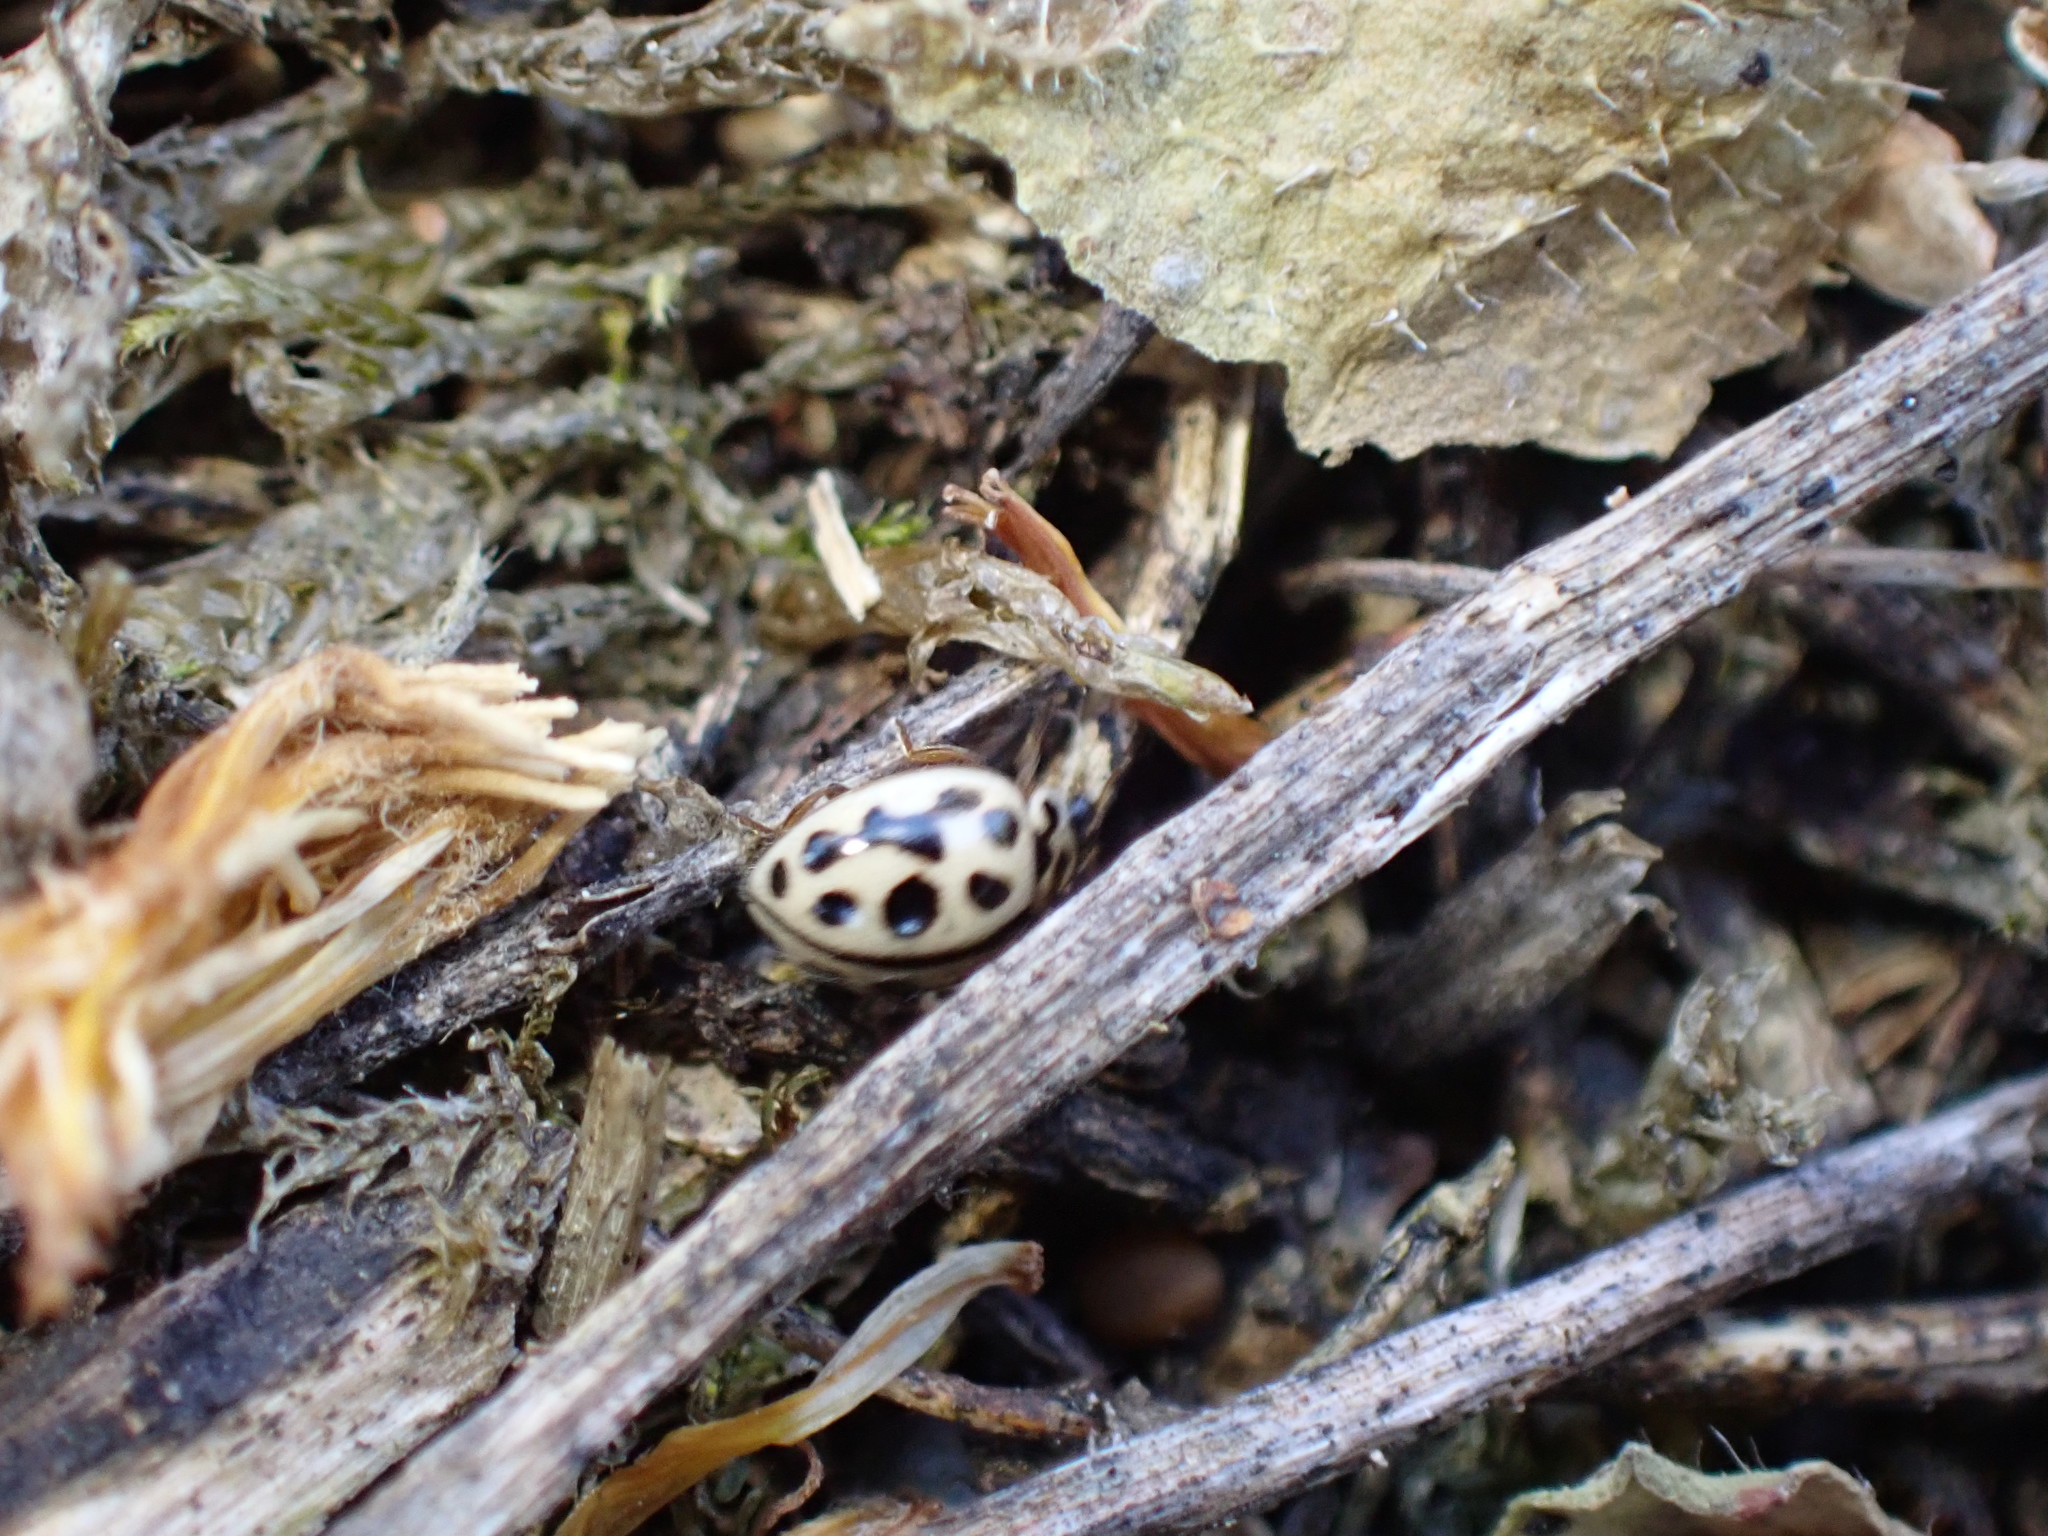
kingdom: Animalia
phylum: Arthropoda
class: Insecta
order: Coleoptera
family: Coccinellidae
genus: Tytthaspis
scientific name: Tytthaspis sedecimpunctata
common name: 16-spot ladybird
